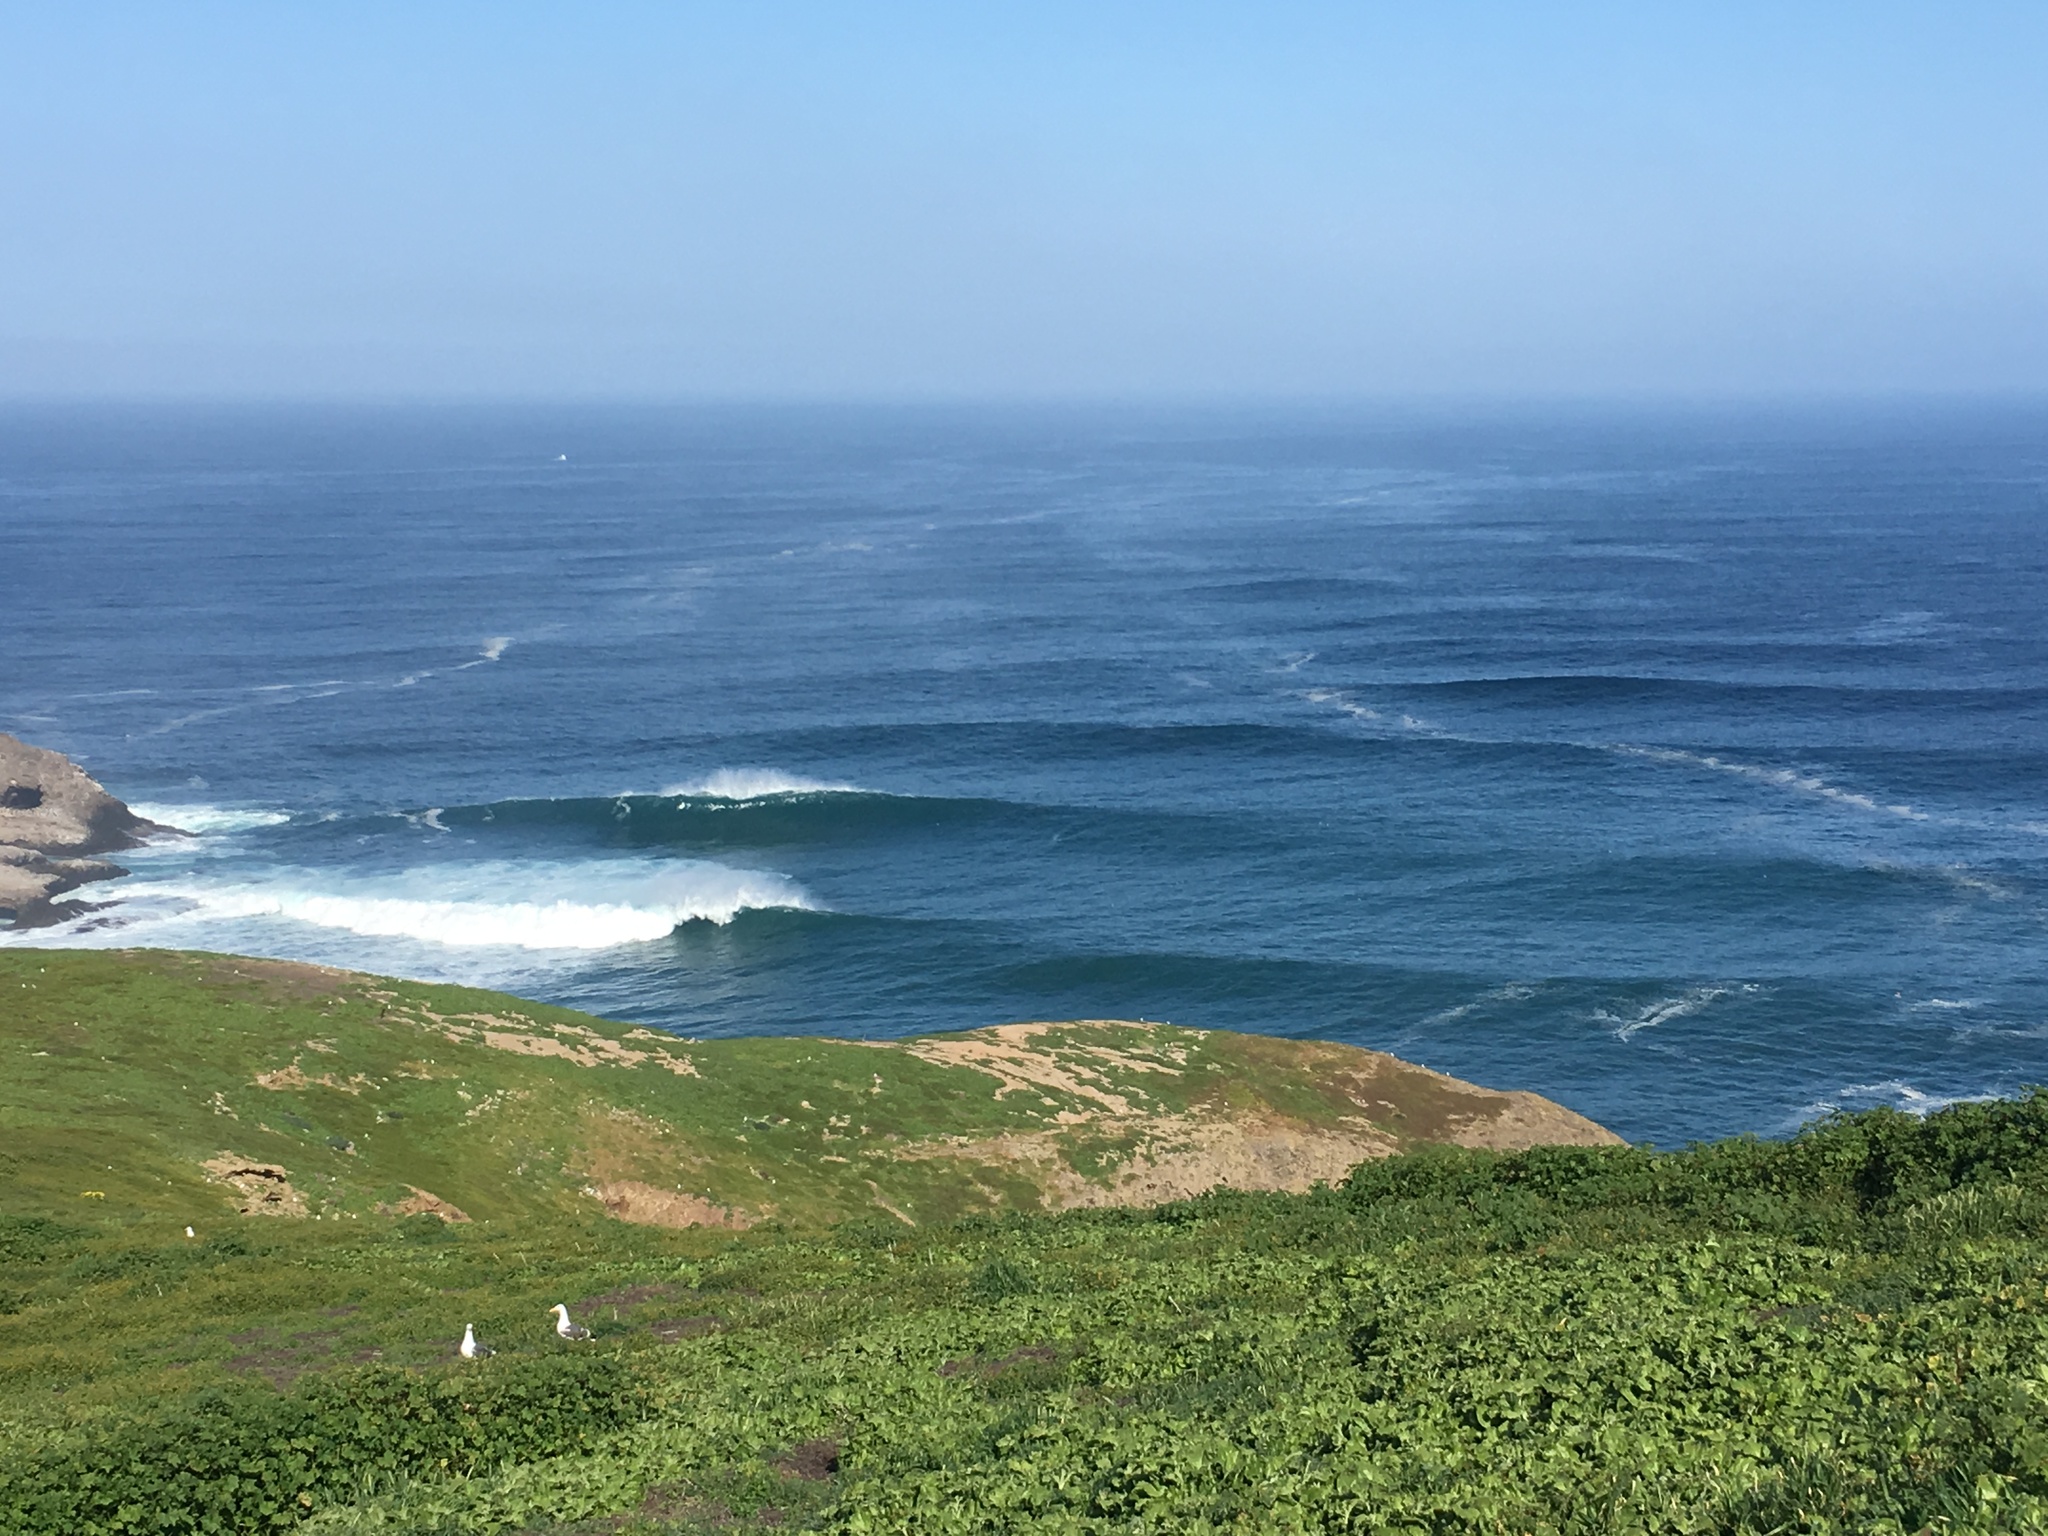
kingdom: Animalia
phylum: Chordata
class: Aves
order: Charadriiformes
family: Laridae
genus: Larus
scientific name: Larus occidentalis
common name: Western gull
